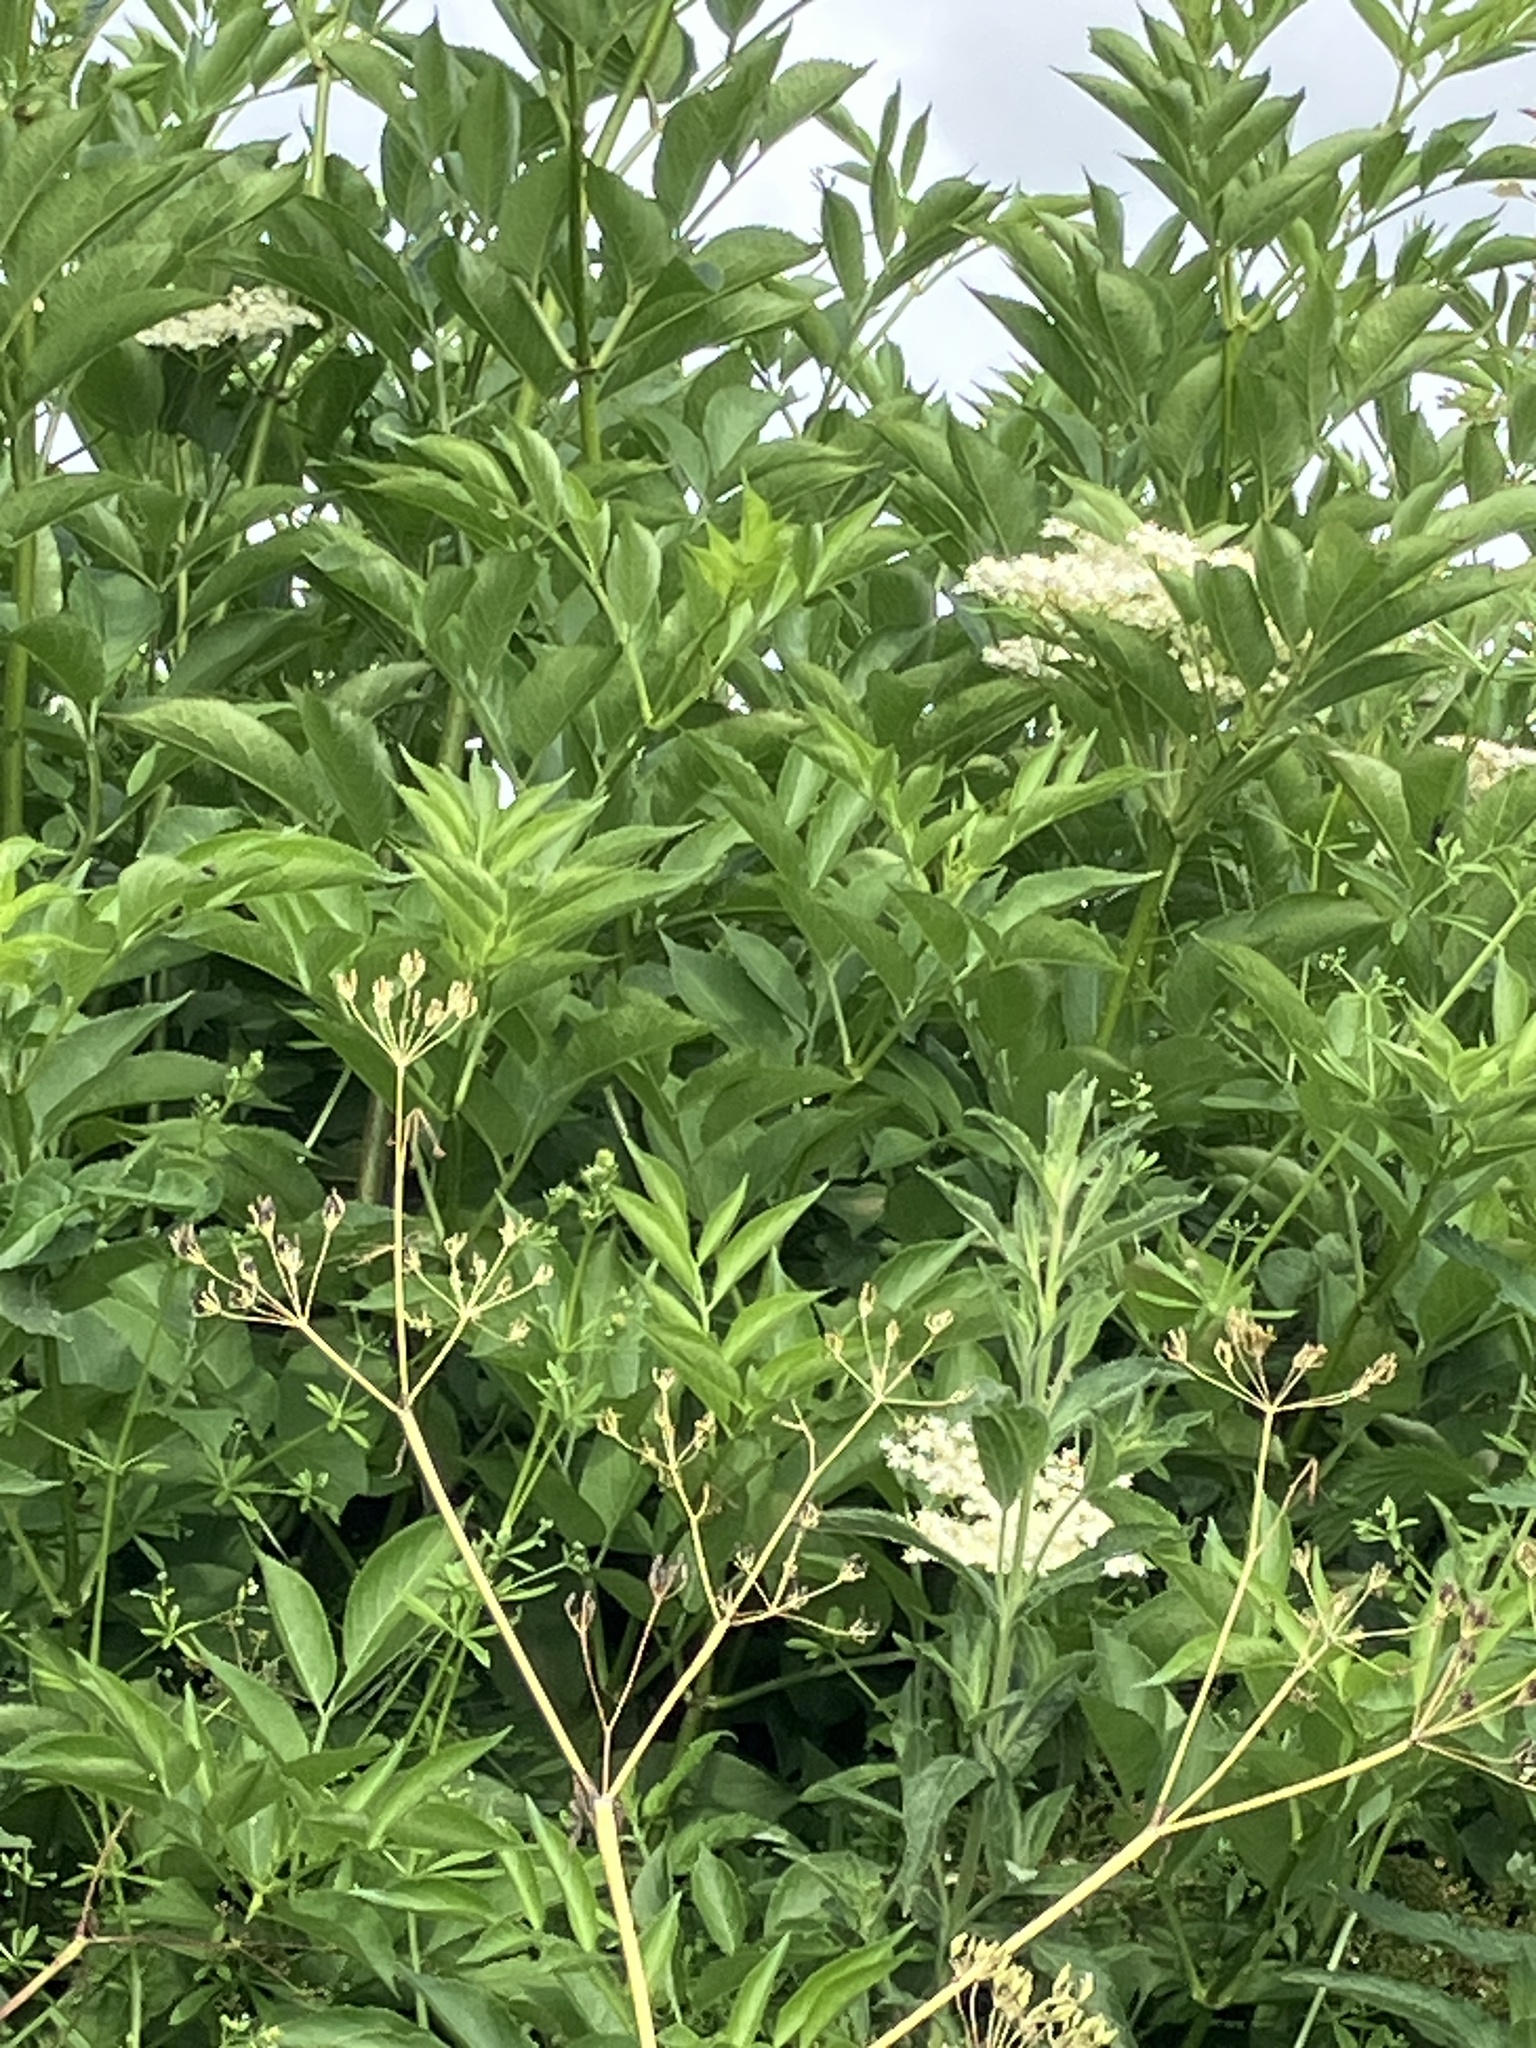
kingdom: Plantae
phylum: Tracheophyta
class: Magnoliopsida
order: Dipsacales
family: Viburnaceae
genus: Sambucus
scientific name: Sambucus nigra
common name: Elder
